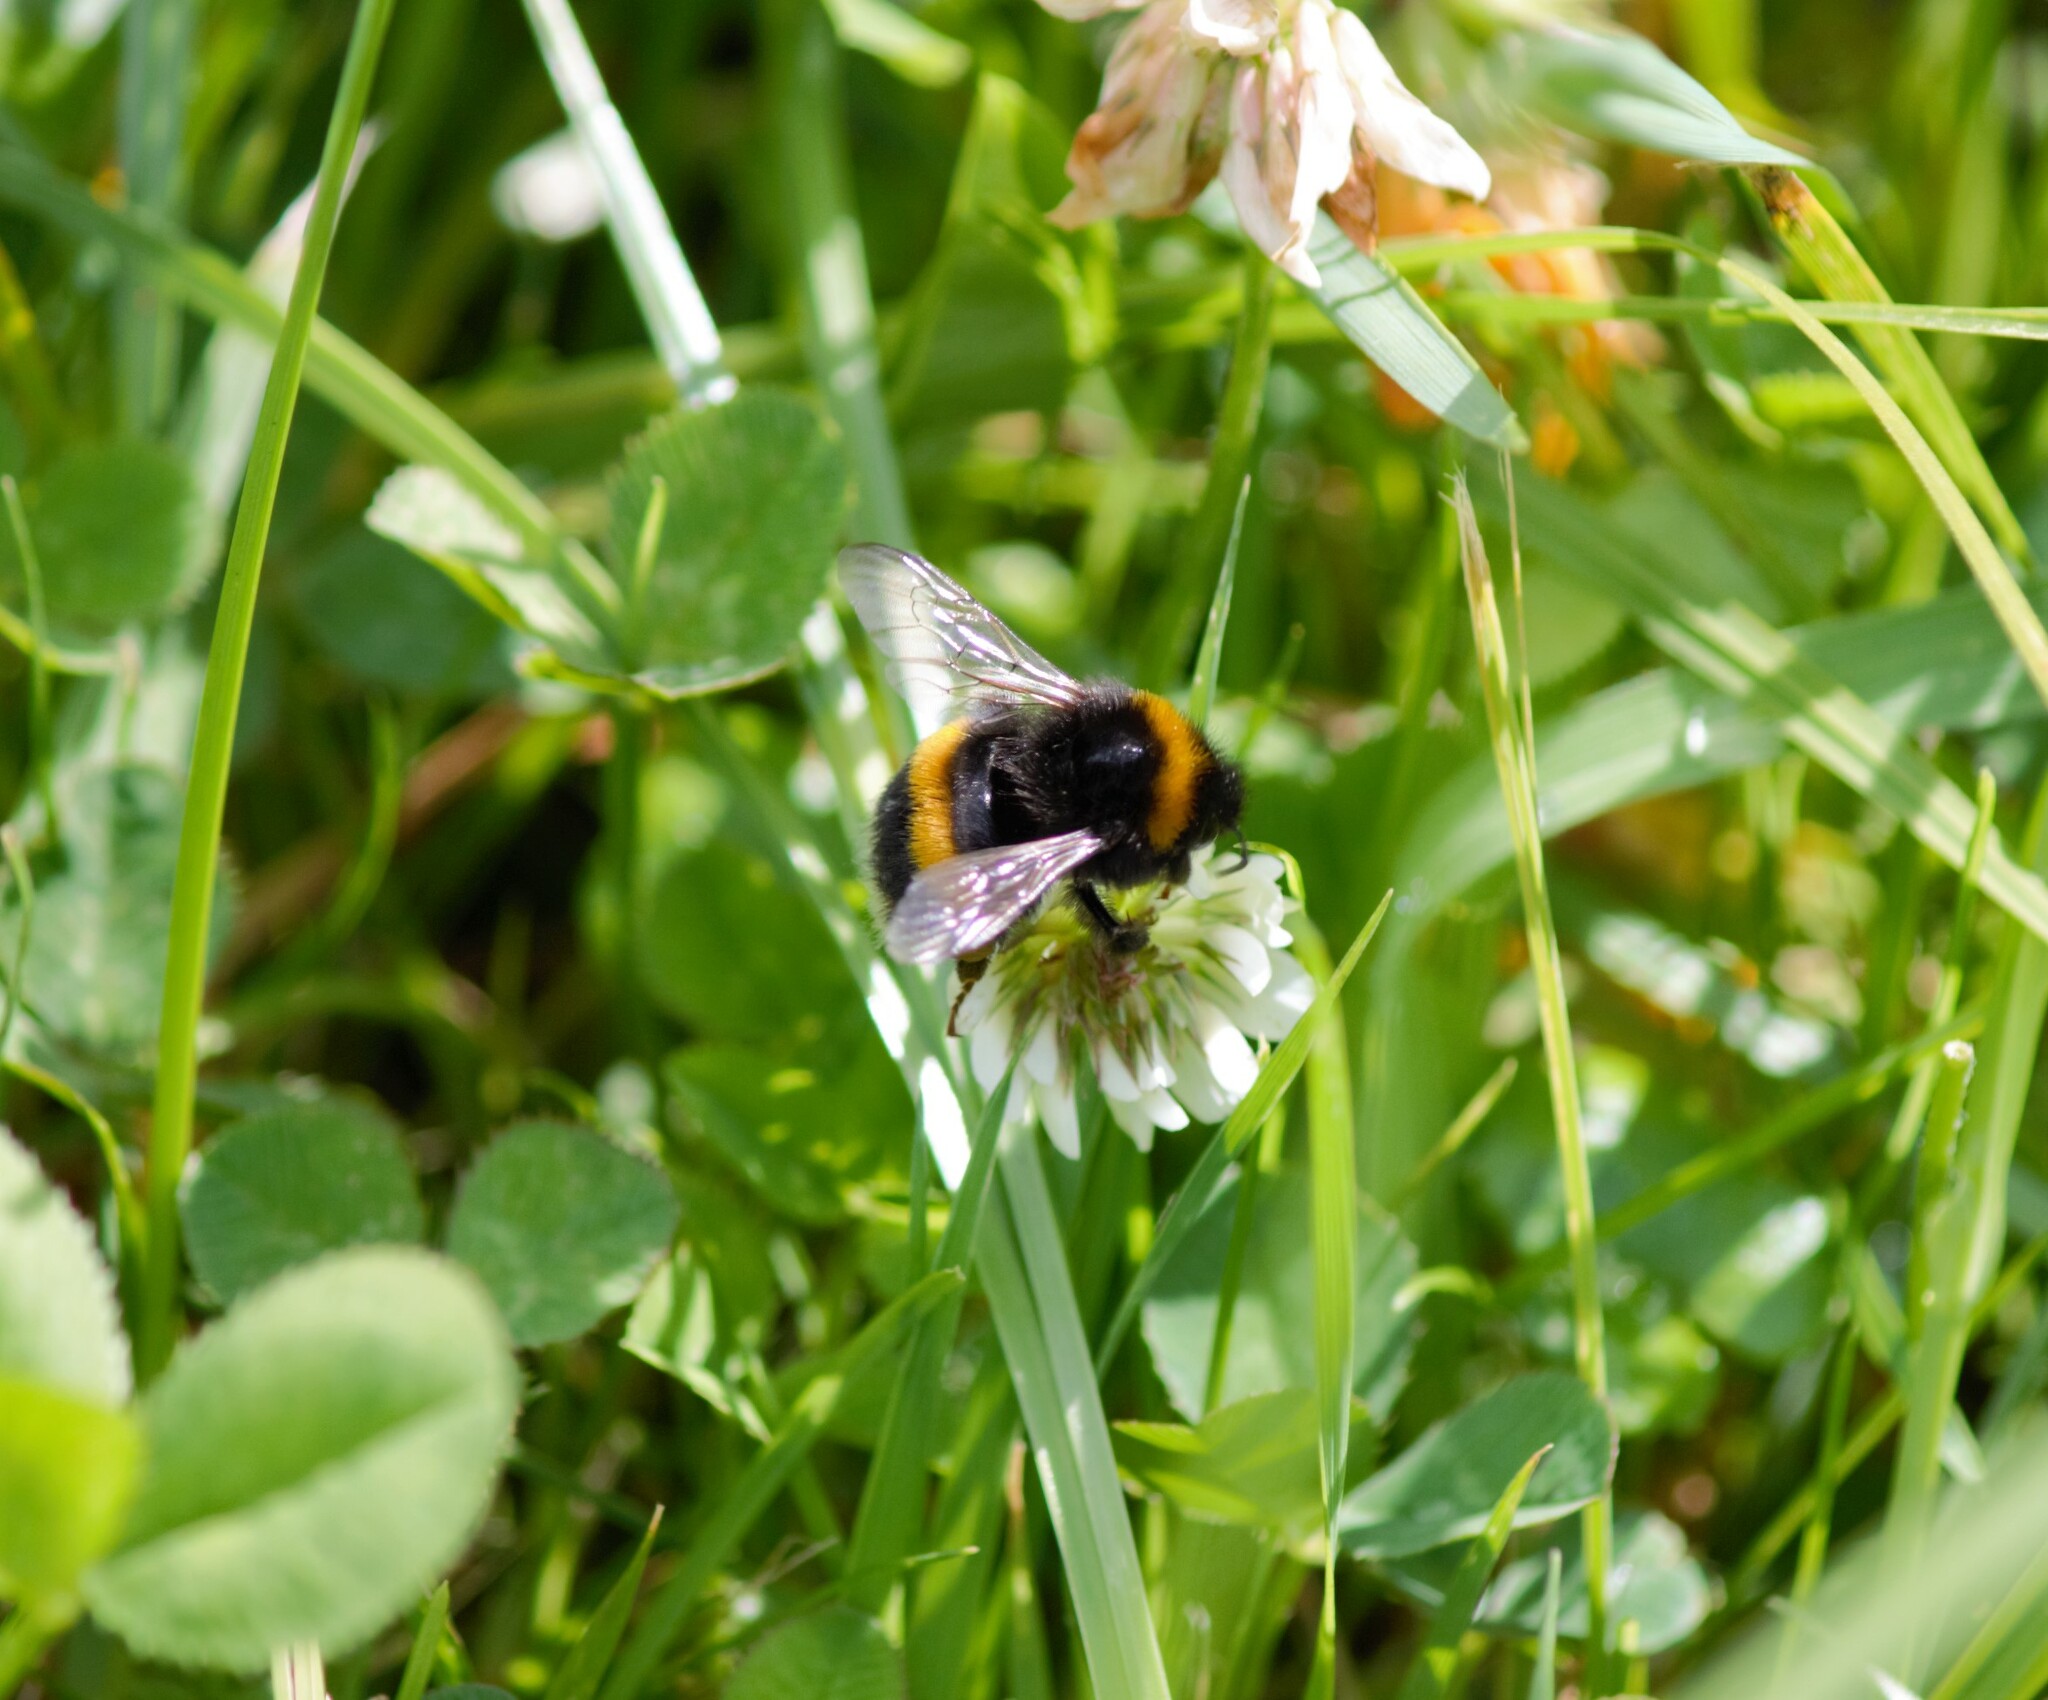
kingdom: Animalia
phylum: Arthropoda
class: Insecta
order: Hymenoptera
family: Apidae
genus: Bombus
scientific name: Bombus terrestris
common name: Buff-tailed bumblebee
